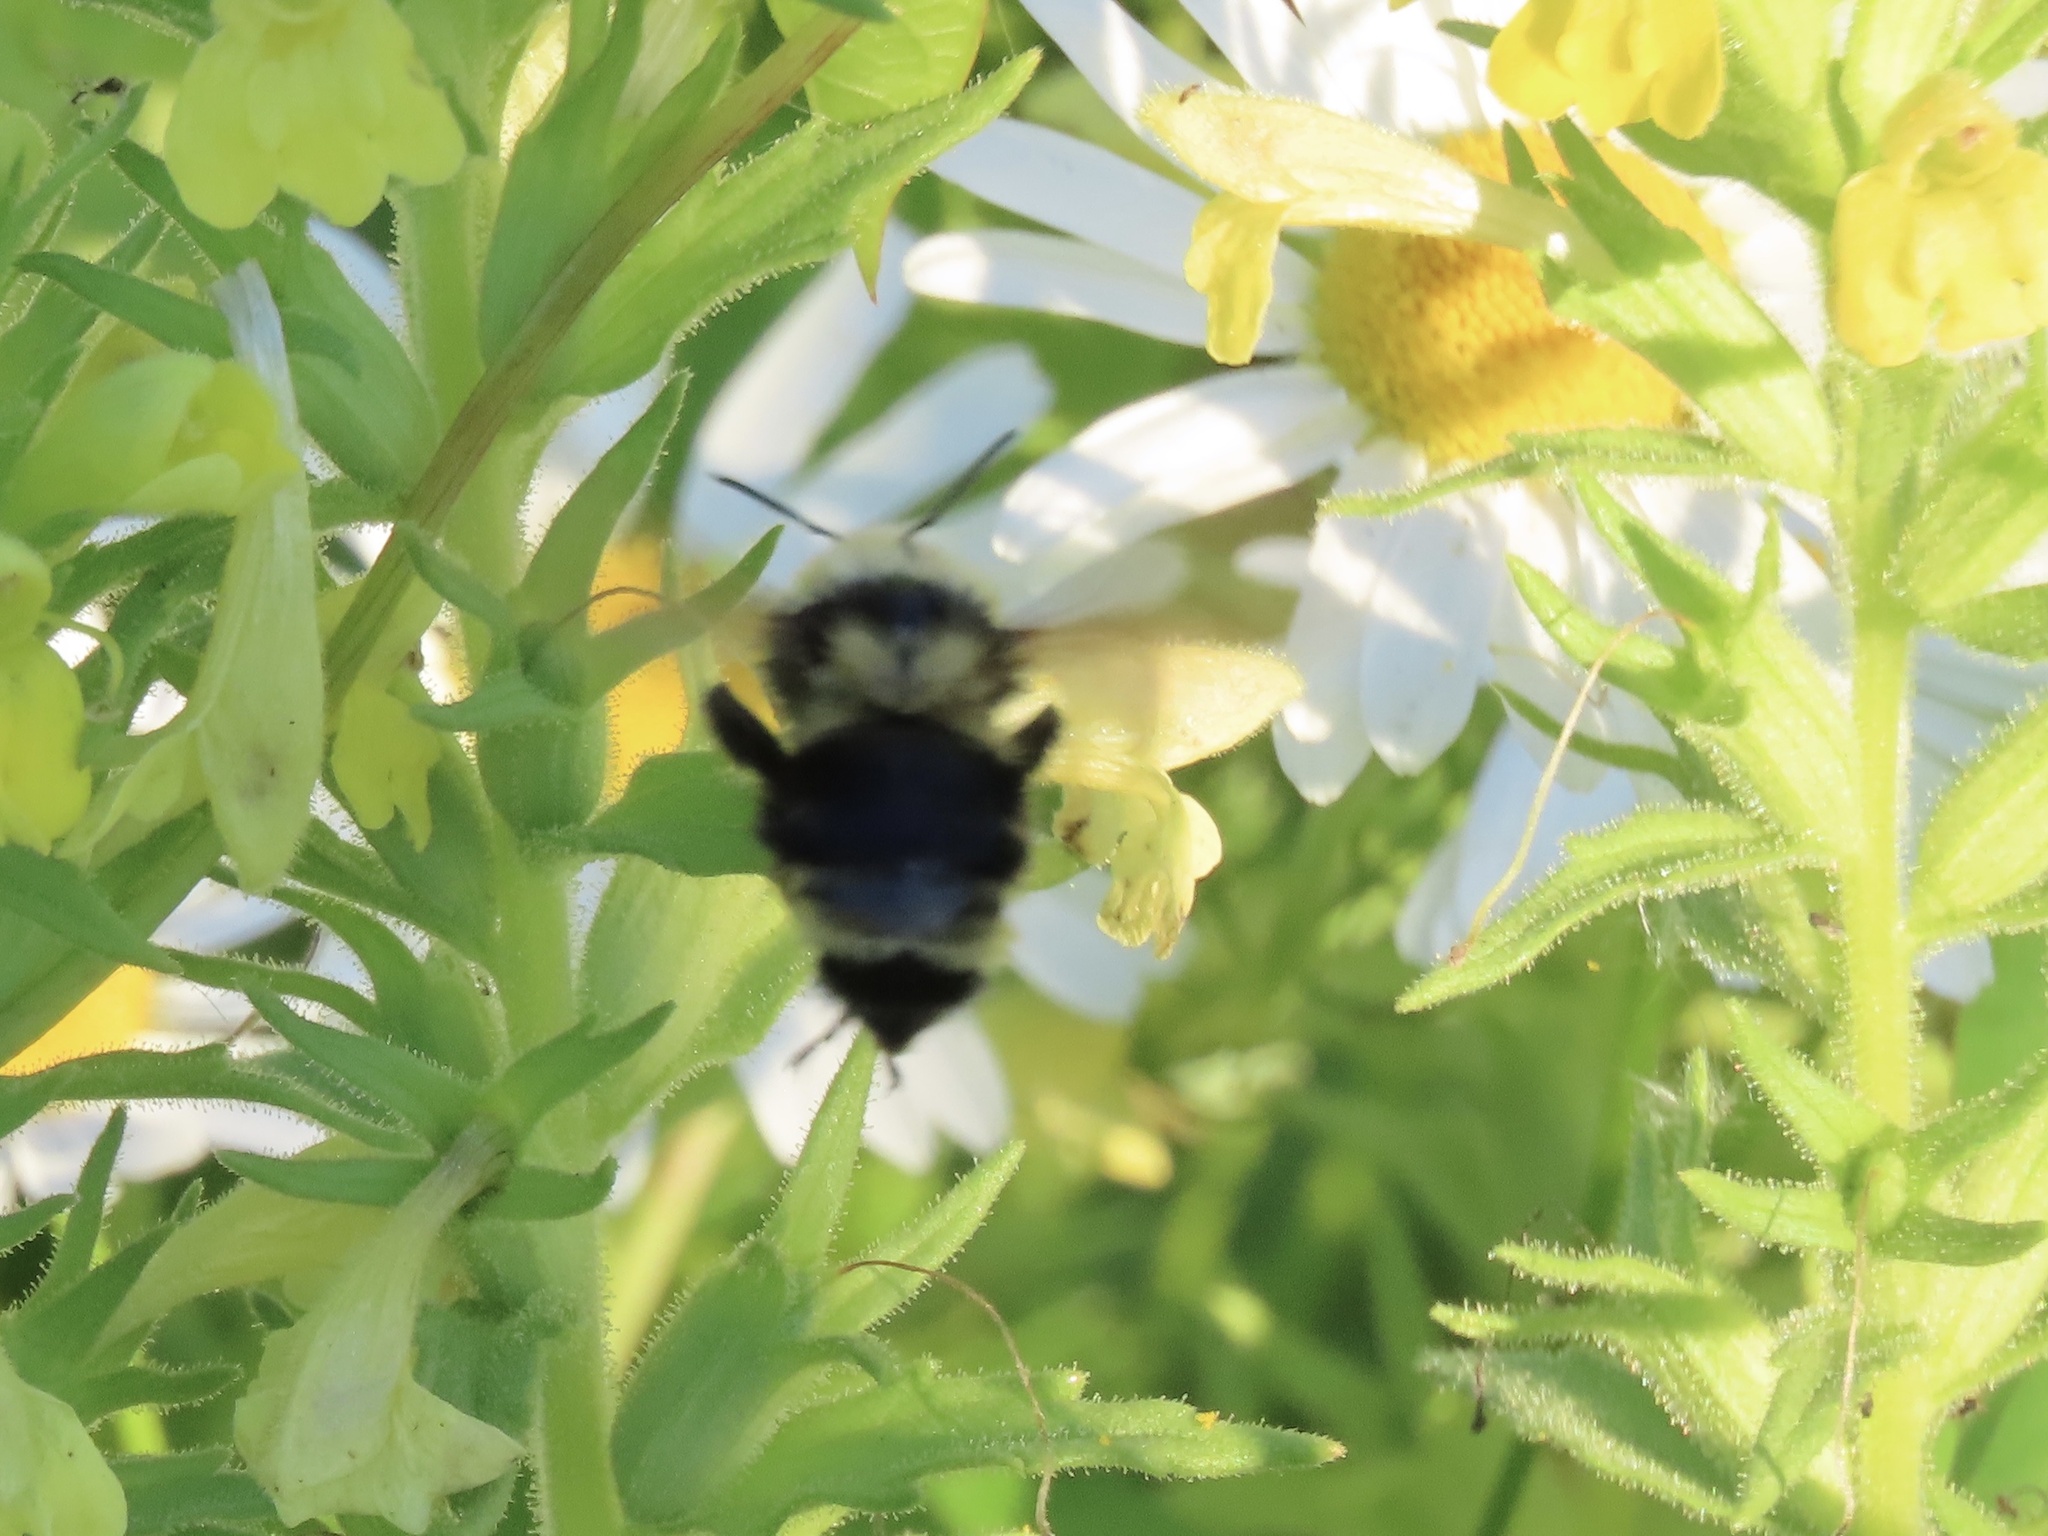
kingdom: Animalia
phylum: Arthropoda
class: Insecta
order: Hymenoptera
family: Apidae
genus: Bombus
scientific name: Bombus vancouverensis
